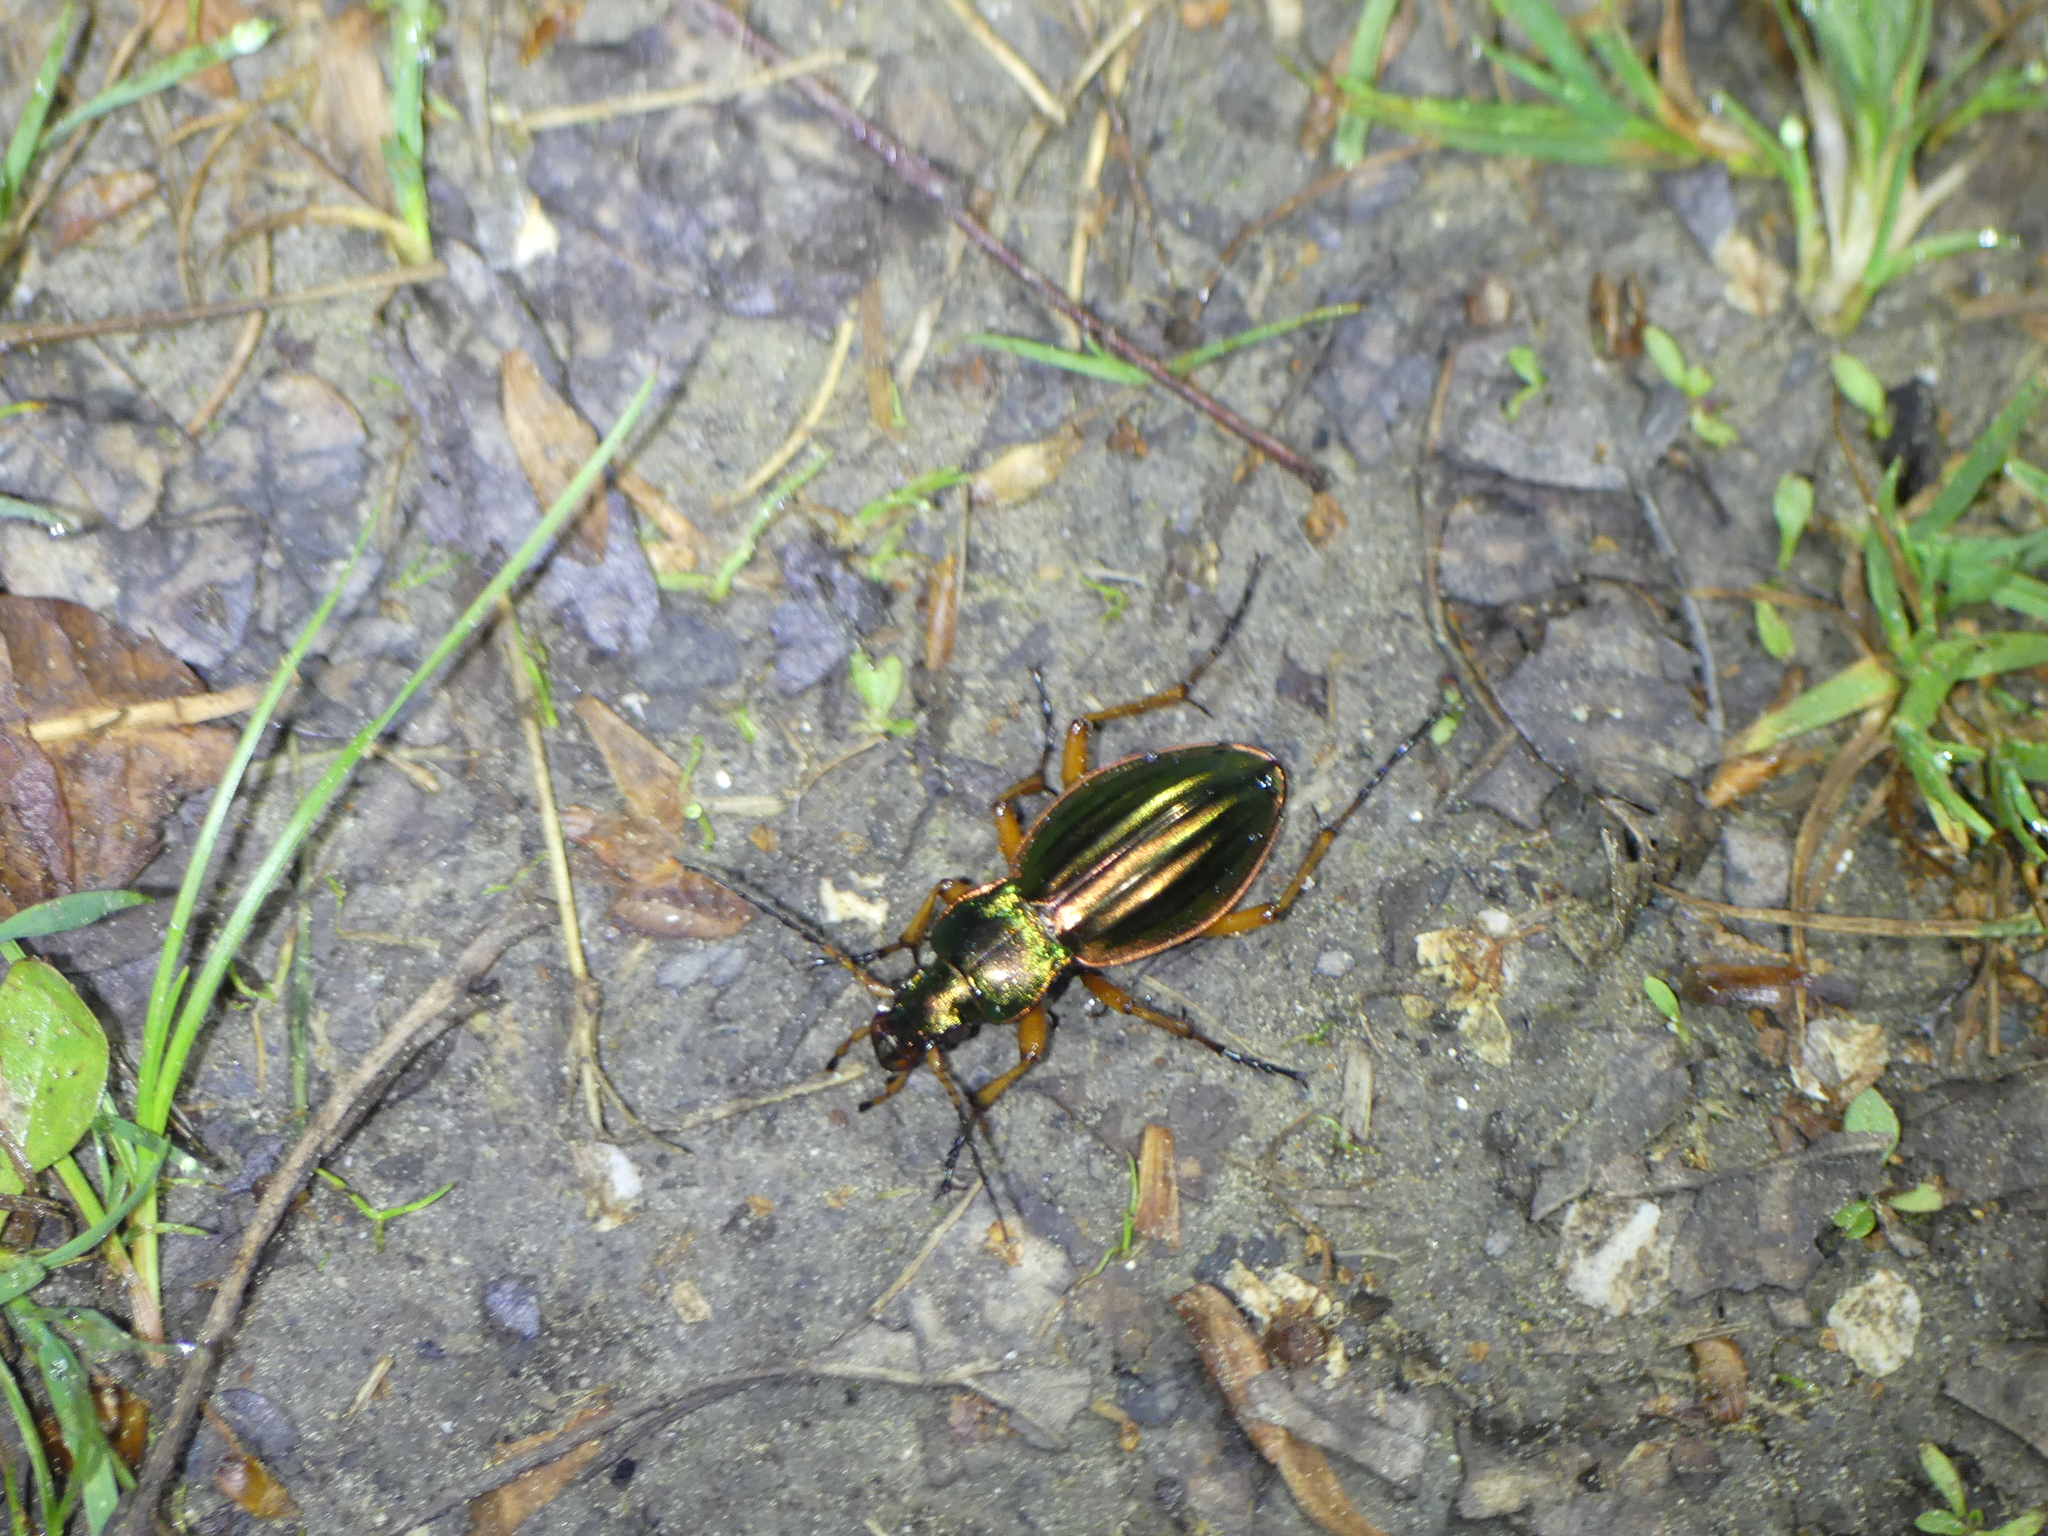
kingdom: Animalia
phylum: Arthropoda
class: Insecta
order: Coleoptera
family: Carabidae
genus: Carabus
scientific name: Carabus auratus
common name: Golden ground beetle
